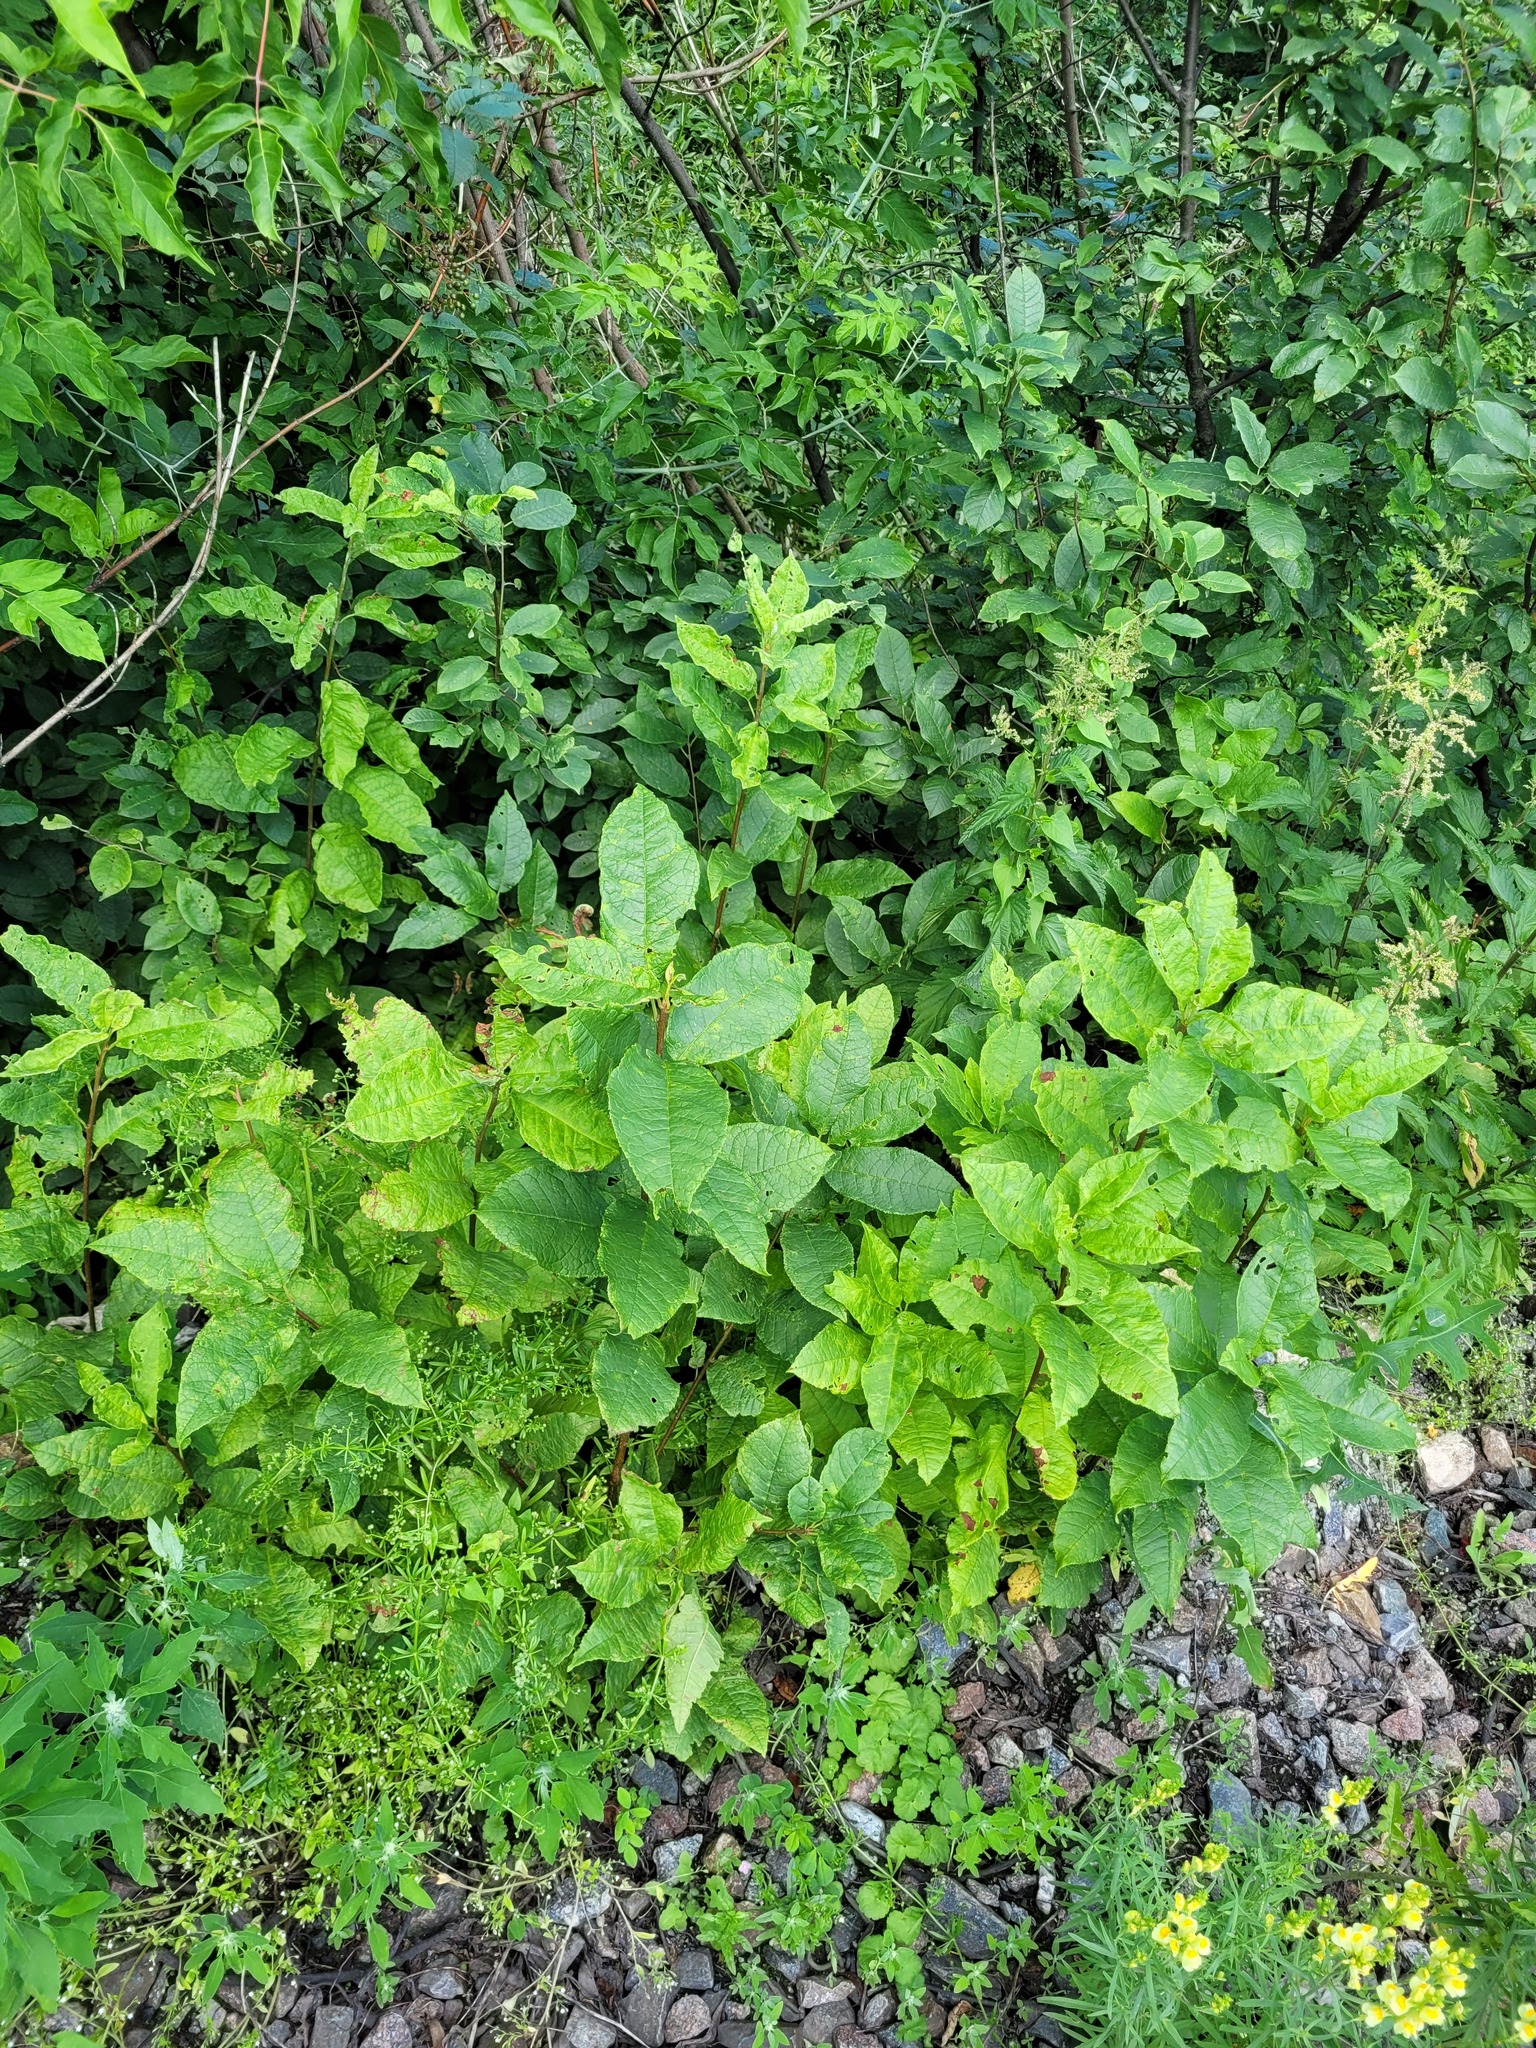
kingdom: Plantae
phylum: Tracheophyta
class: Magnoliopsida
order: Rosales
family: Rosaceae
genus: Prunus
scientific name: Prunus padus
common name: Bird cherry
